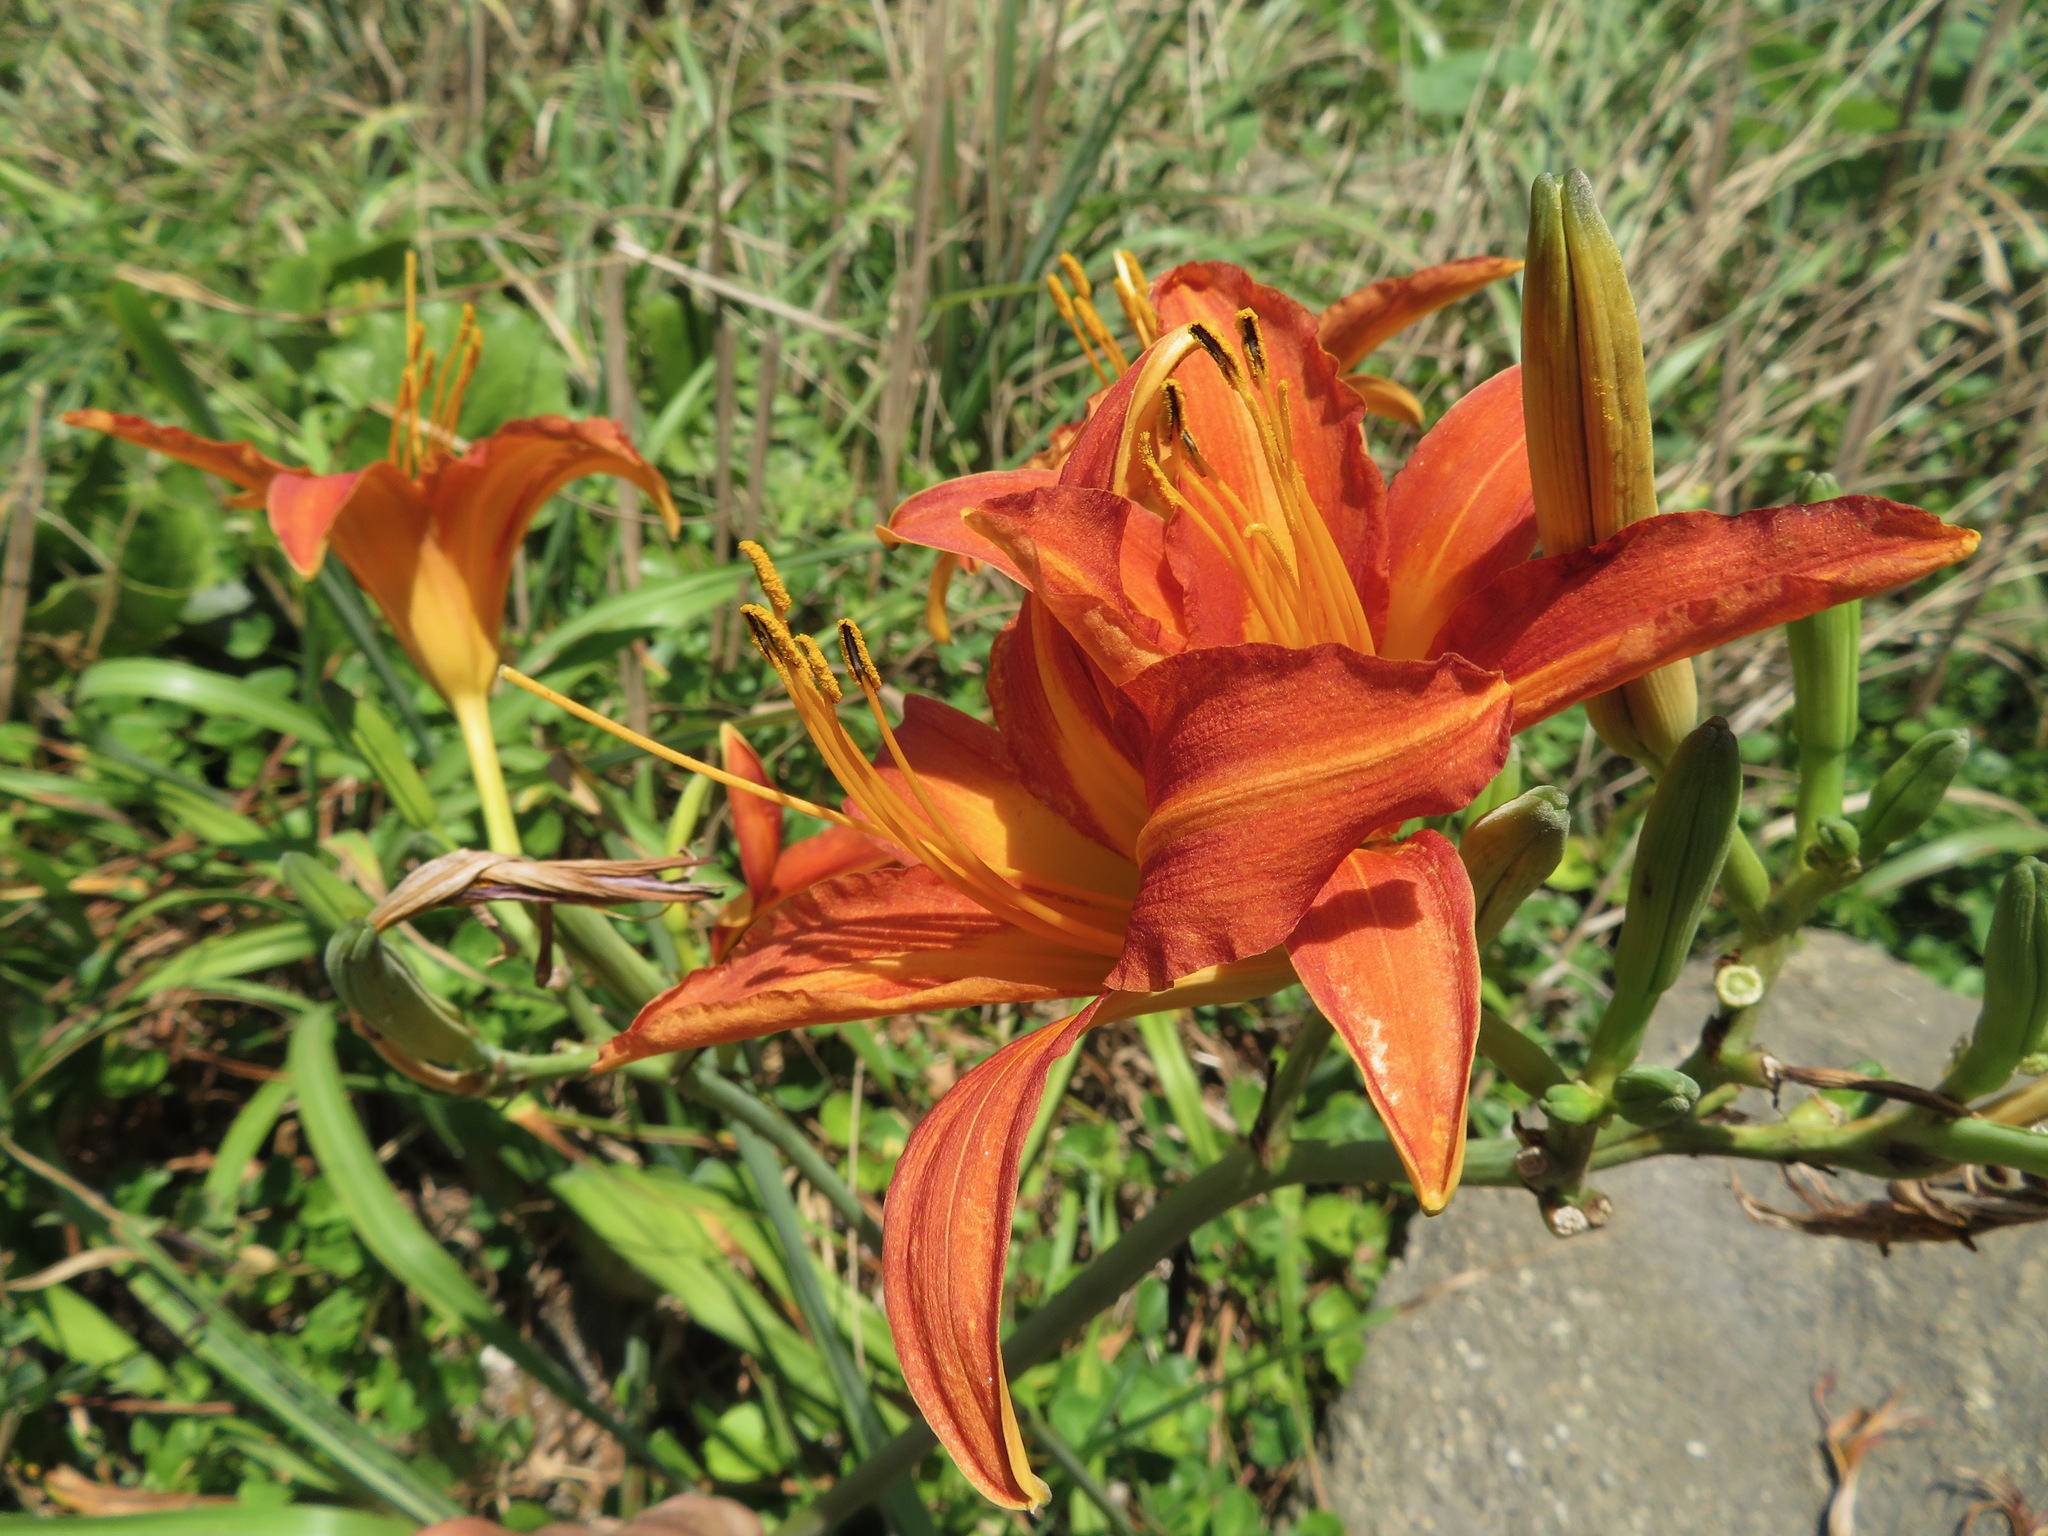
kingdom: Plantae
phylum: Tracheophyta
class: Liliopsida
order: Asparagales
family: Asphodelaceae
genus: Hemerocallis
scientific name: Hemerocallis fulva
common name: Orange day-lily
